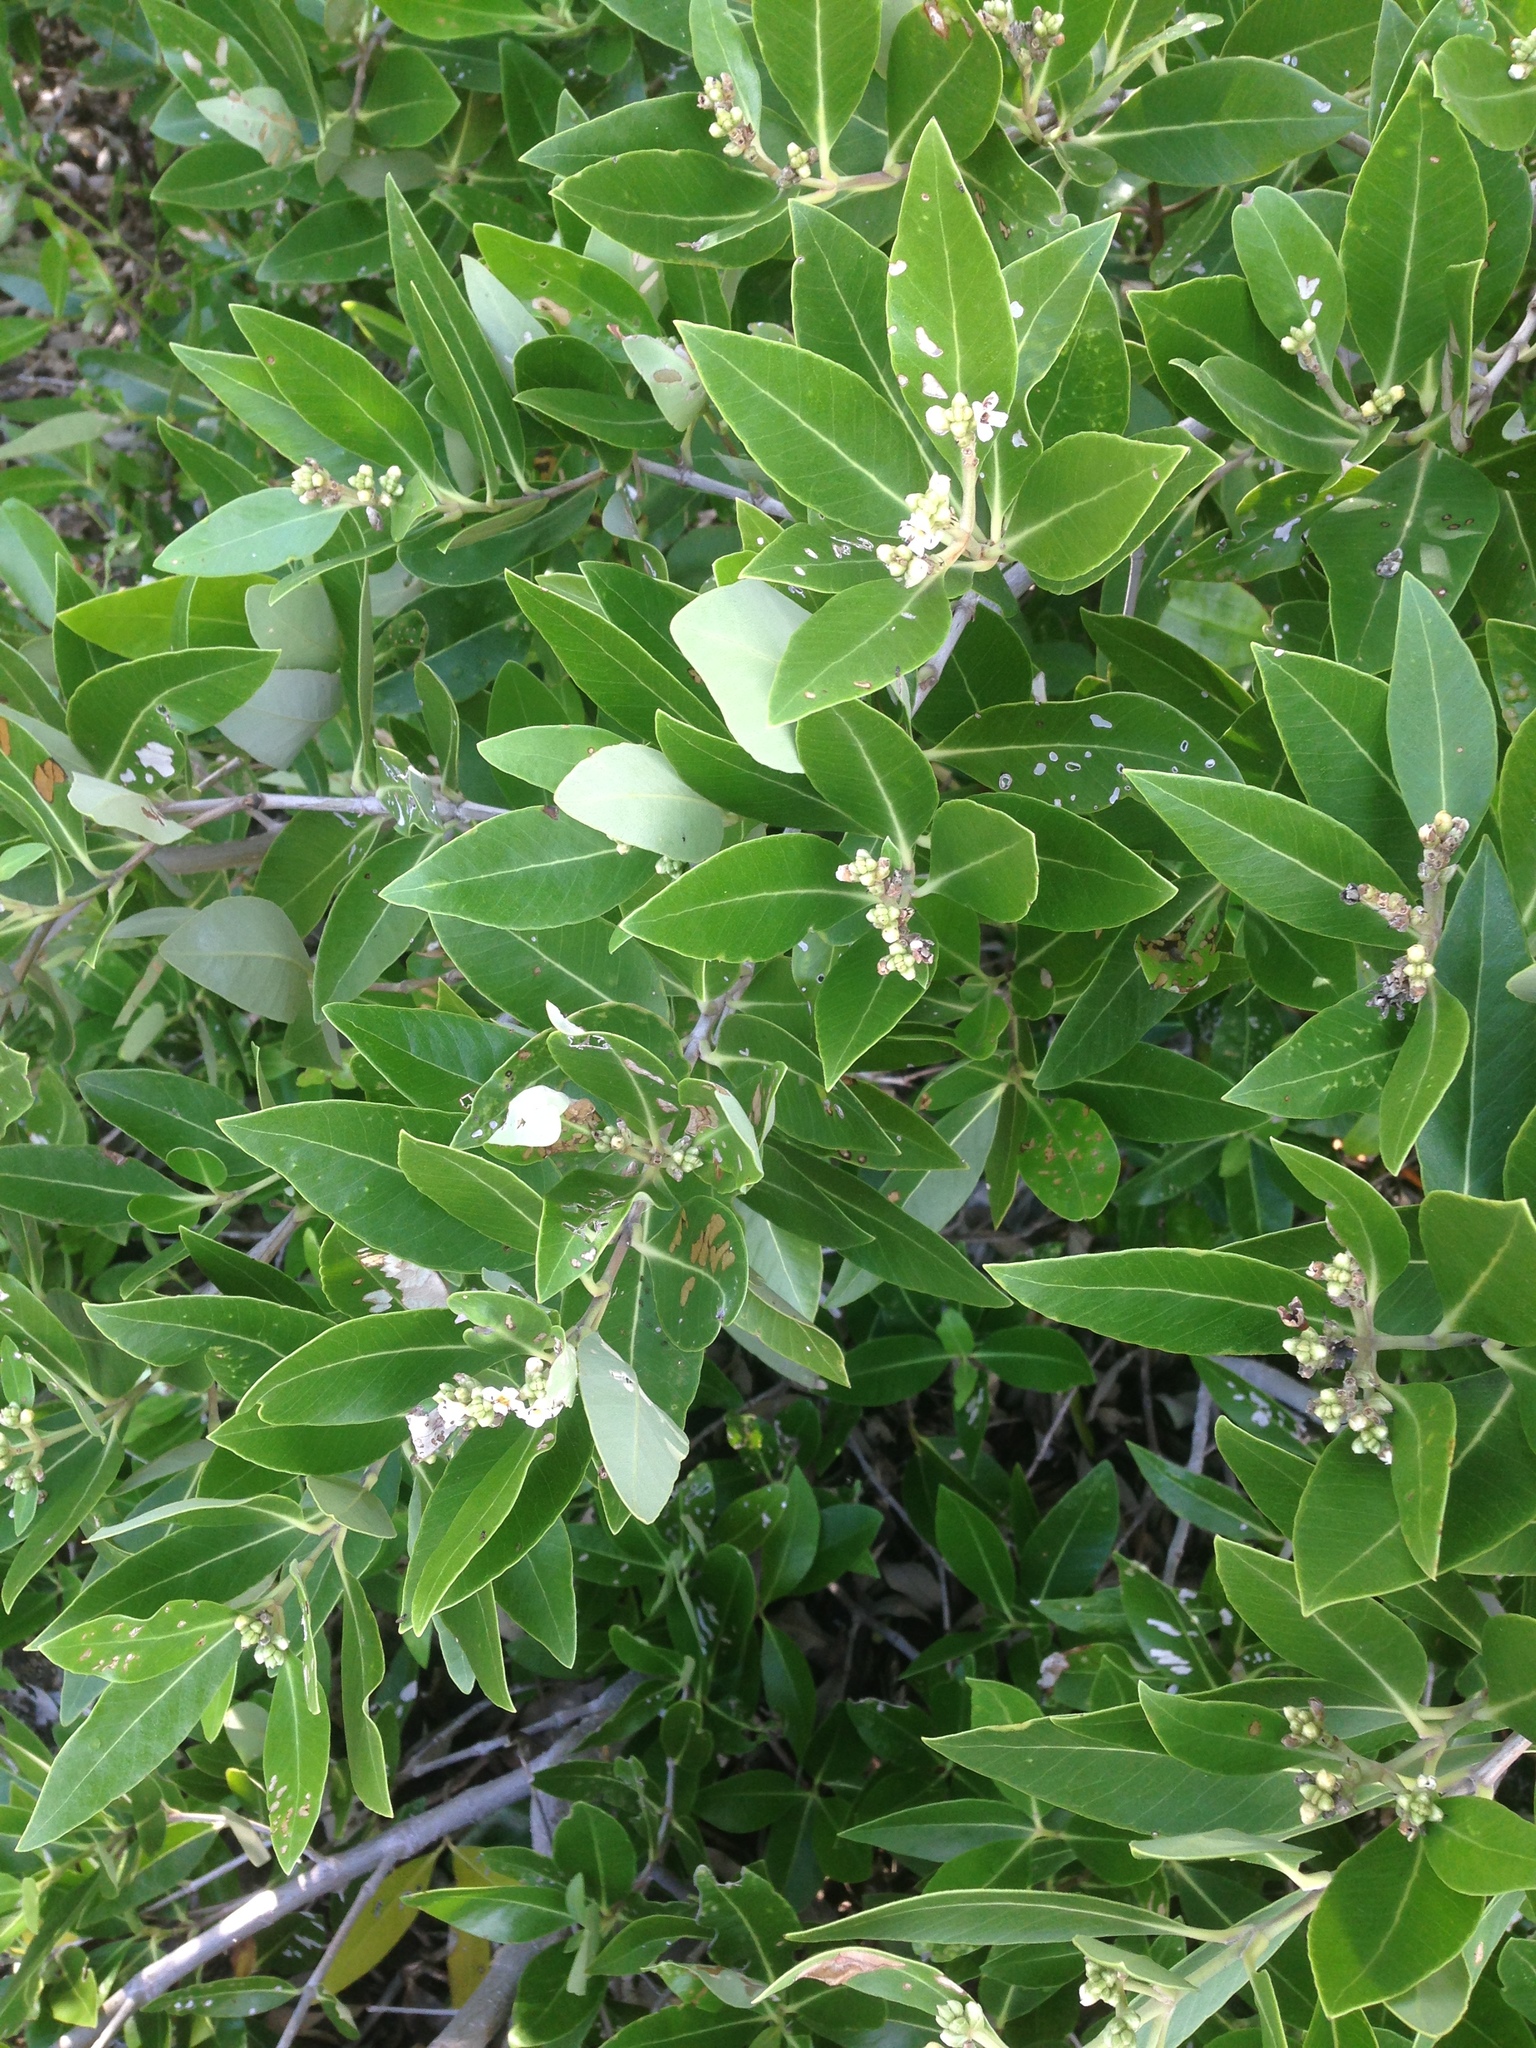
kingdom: Plantae
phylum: Tracheophyta
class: Magnoliopsida
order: Lamiales
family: Acanthaceae
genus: Avicennia
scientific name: Avicennia germinans
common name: Black mangrove
